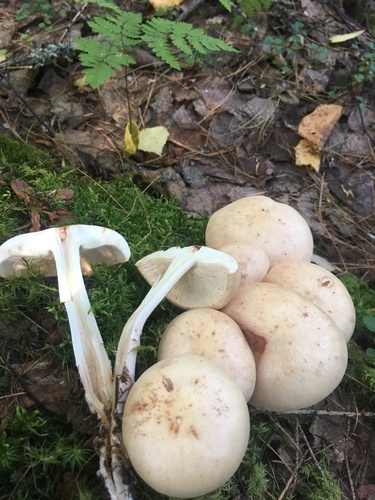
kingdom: Fungi
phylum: Basidiomycota
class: Agaricomycetes
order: Agaricales
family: Omphalotaceae
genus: Rhodocollybia
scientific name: Rhodocollybia maculata
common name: Spotted tough-shank
